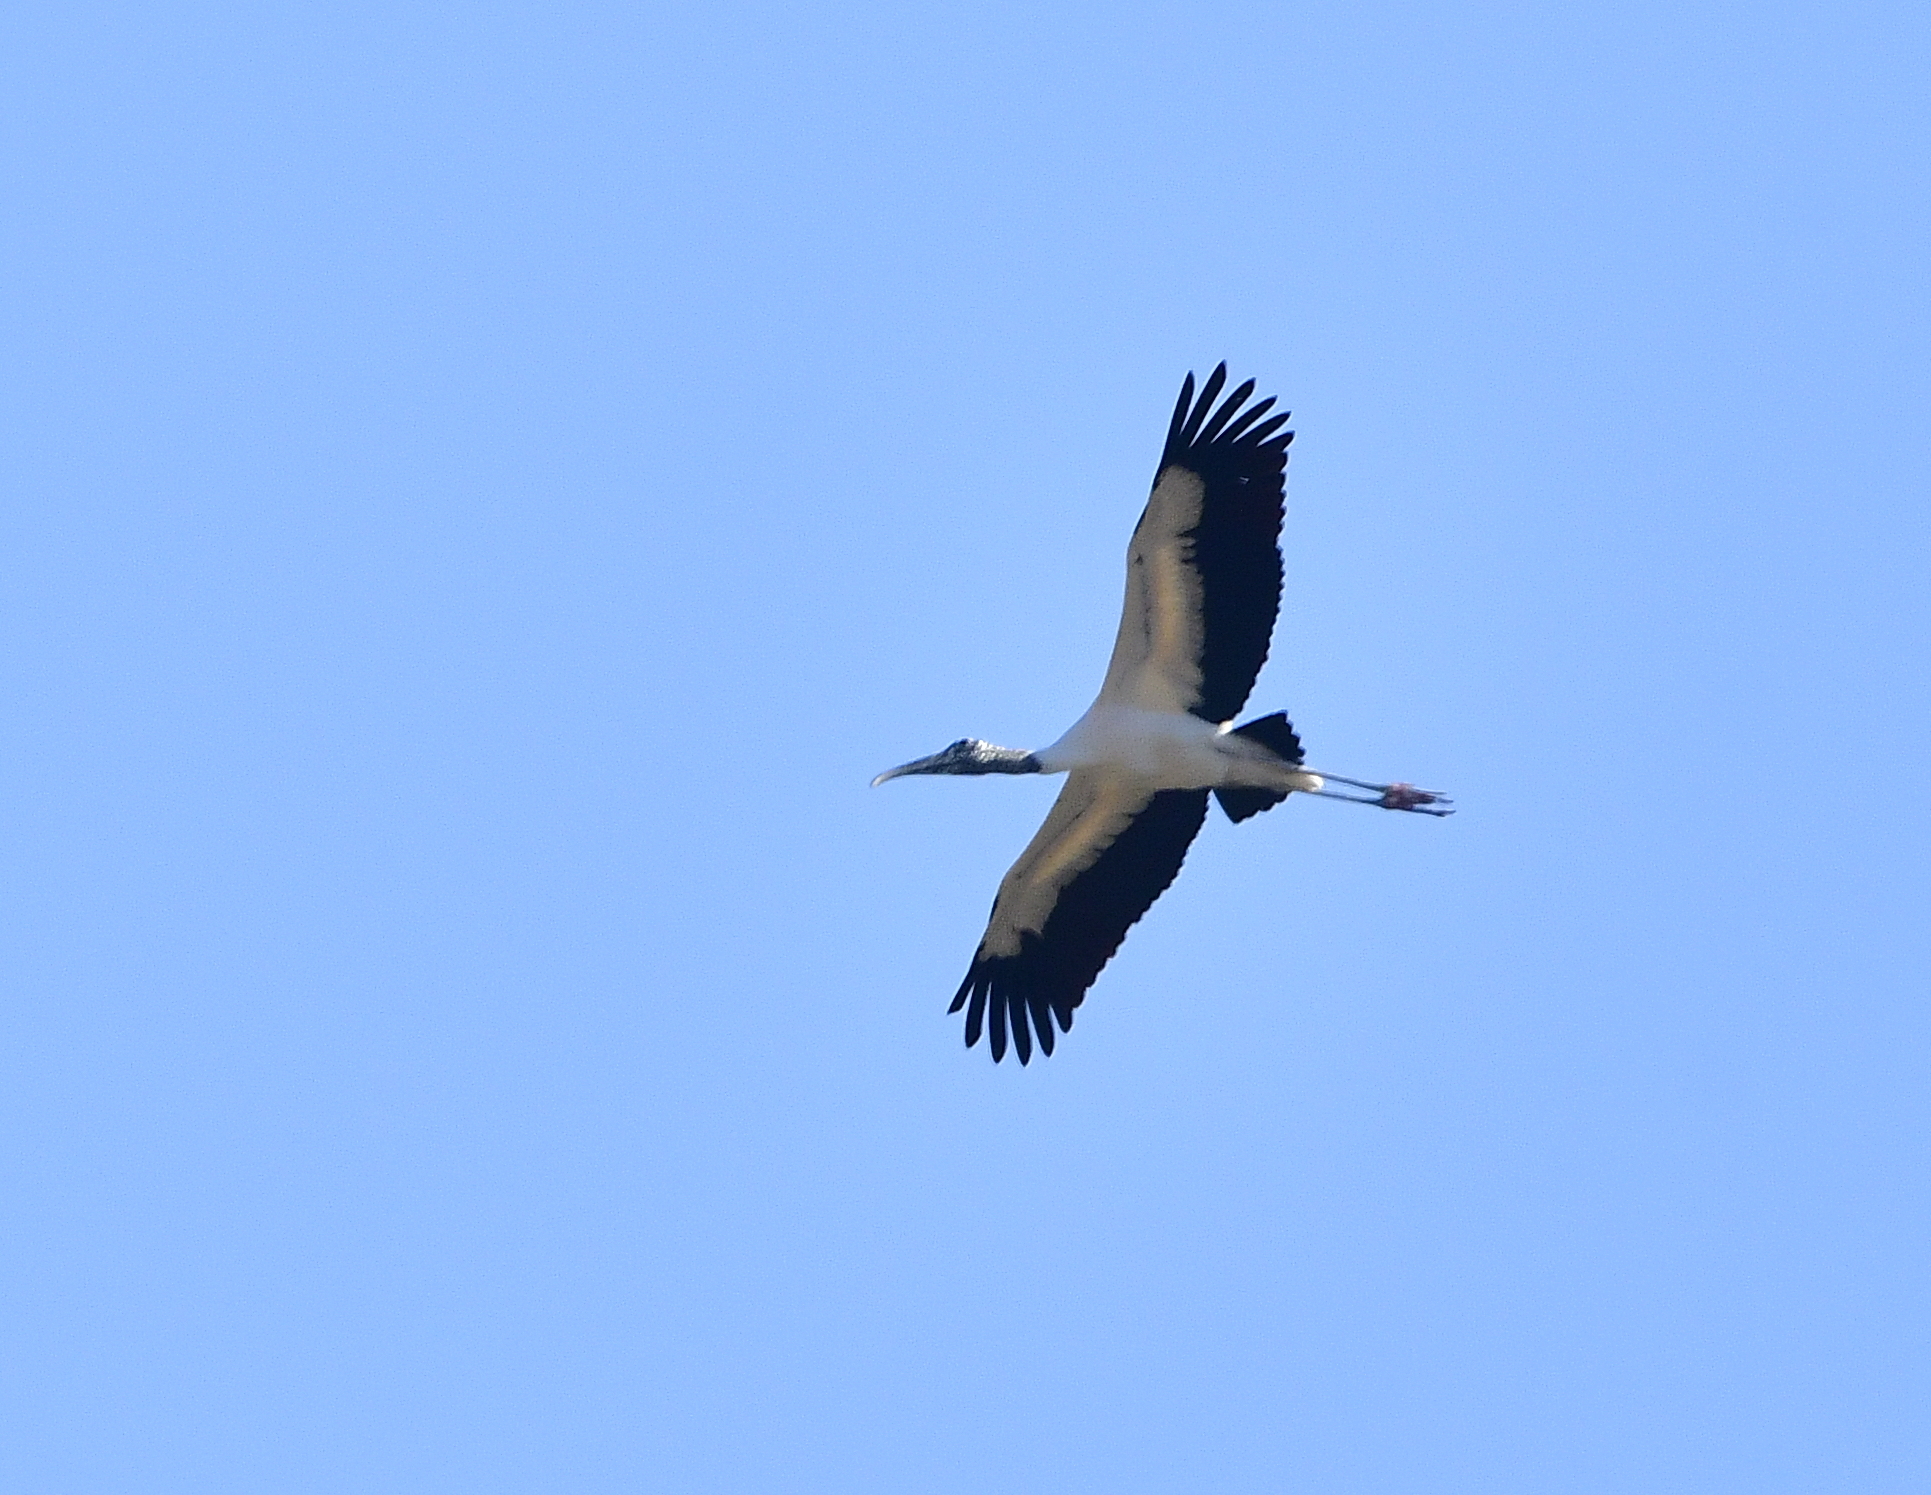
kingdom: Animalia
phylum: Chordata
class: Aves
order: Ciconiiformes
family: Ciconiidae
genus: Mycteria
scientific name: Mycteria americana
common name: Wood stork
